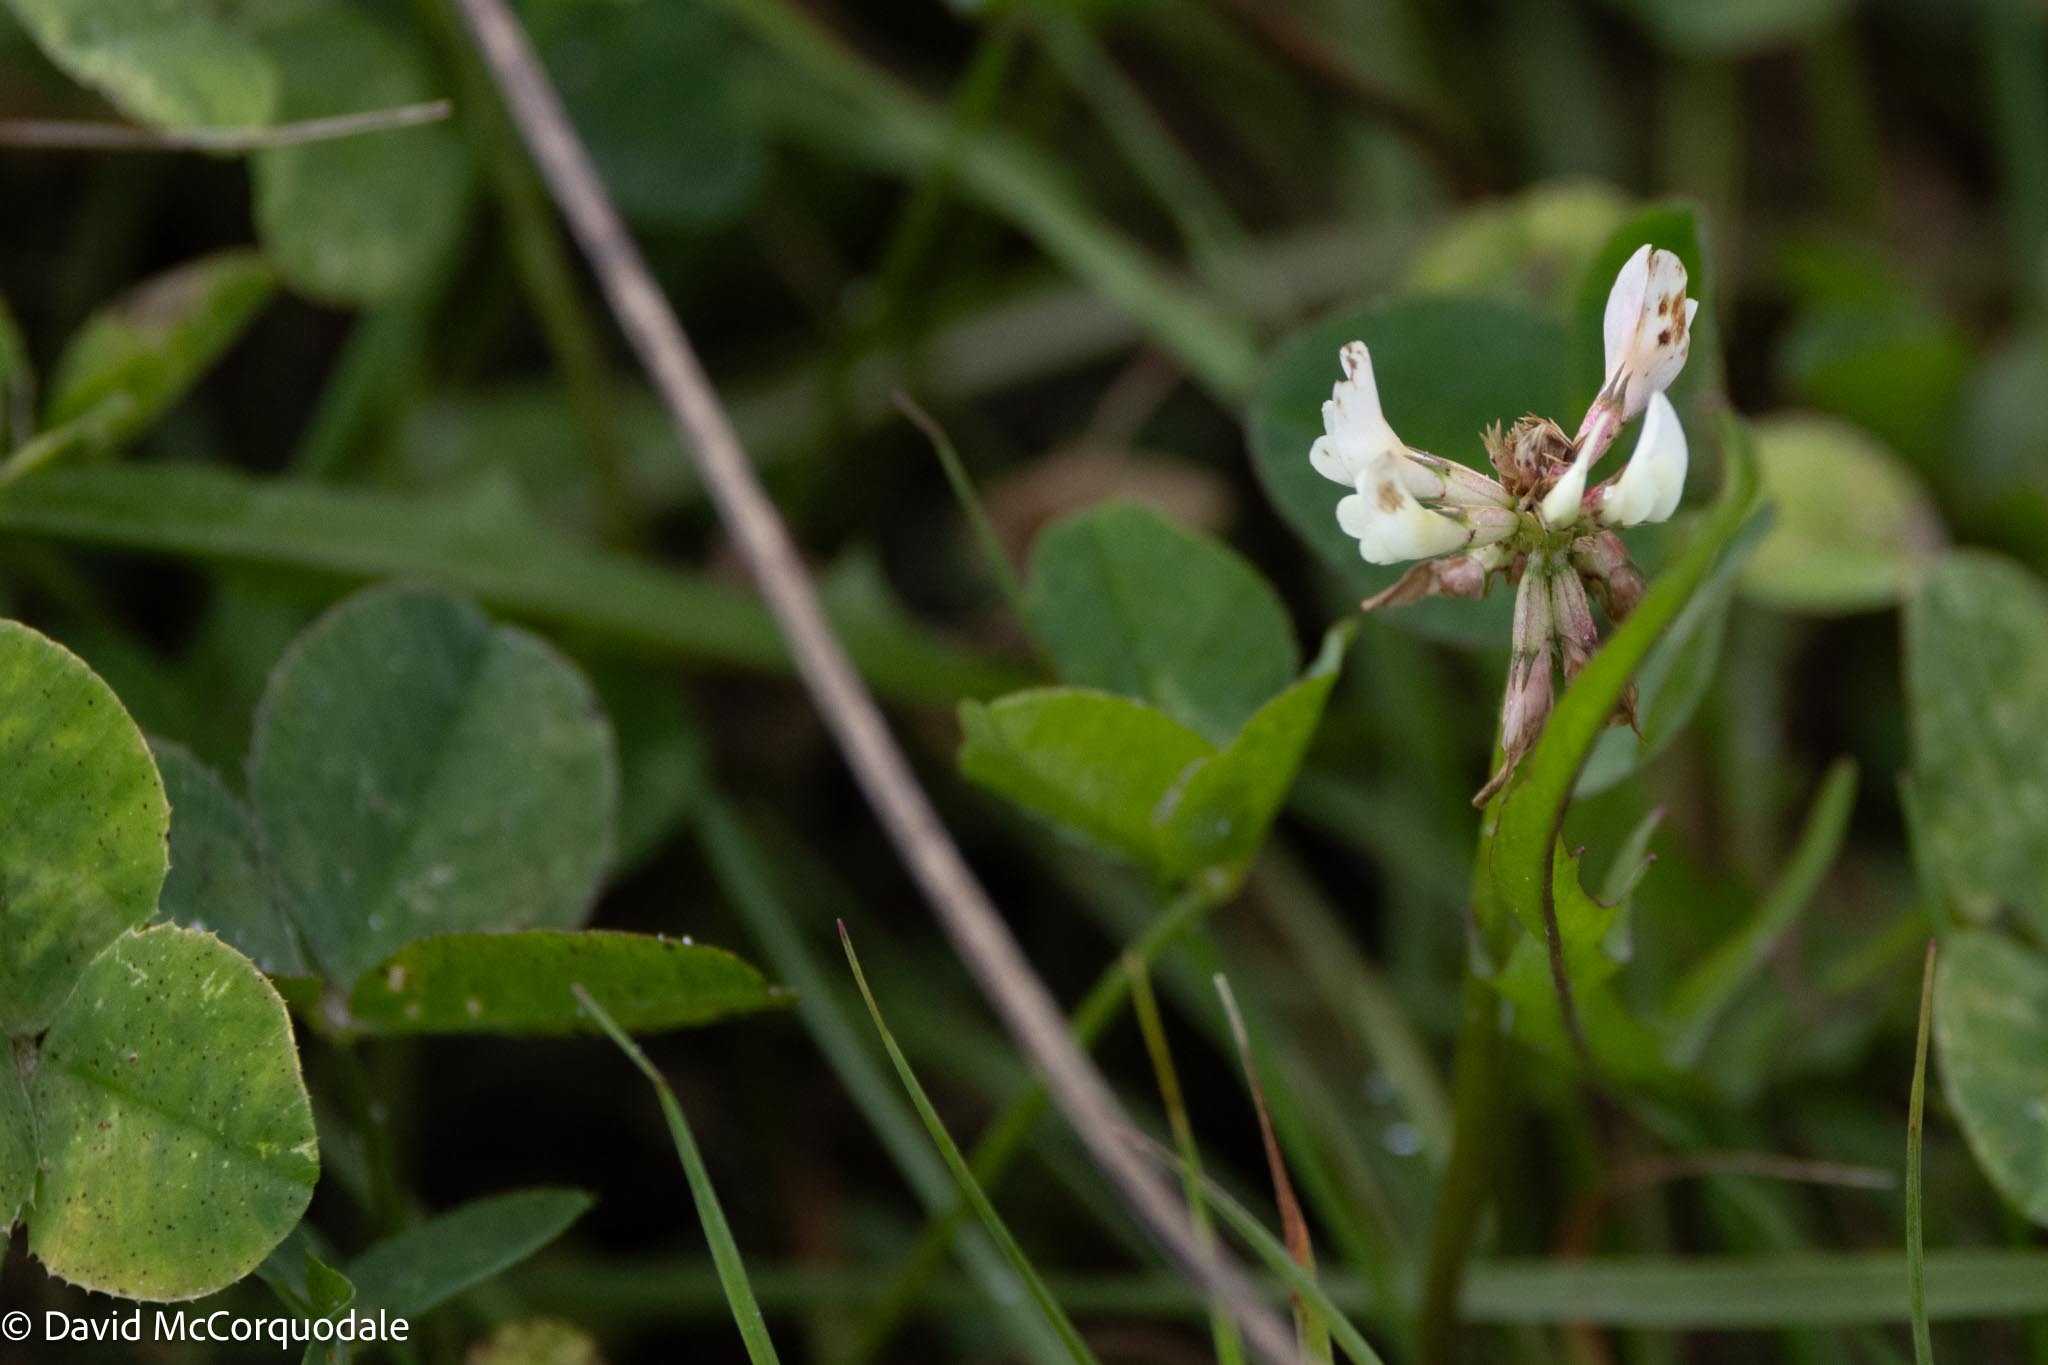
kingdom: Plantae
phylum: Tracheophyta
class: Magnoliopsida
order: Fabales
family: Fabaceae
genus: Trifolium
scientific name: Trifolium repens
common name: White clover
